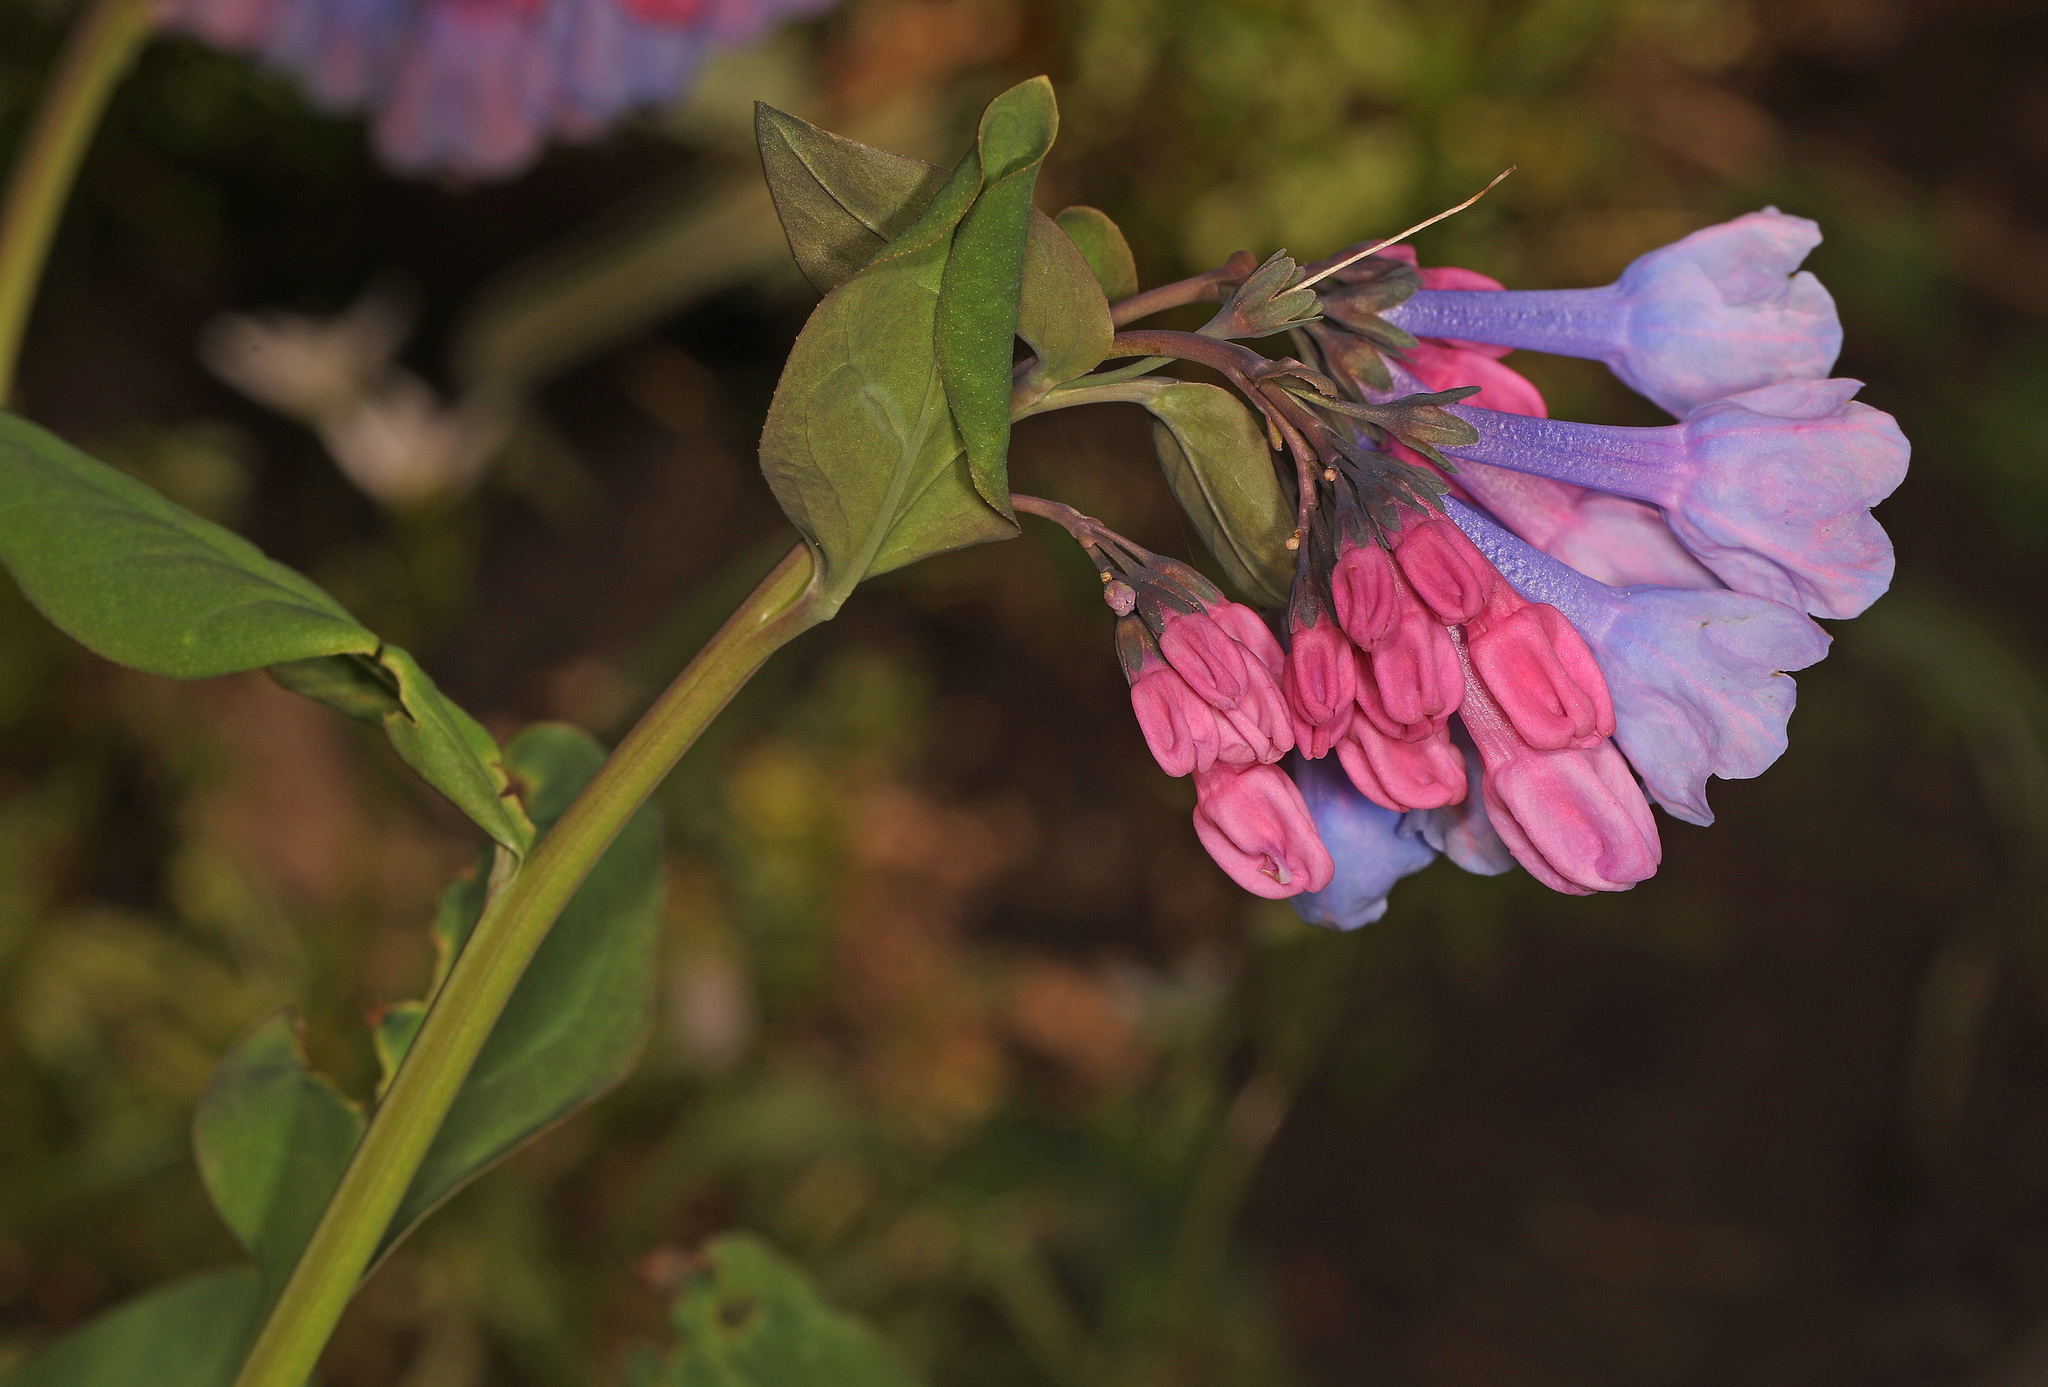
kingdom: Plantae
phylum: Tracheophyta
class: Magnoliopsida
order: Boraginales
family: Boraginaceae
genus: Mertensia
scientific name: Mertensia virginica
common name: Virginia bluebells
